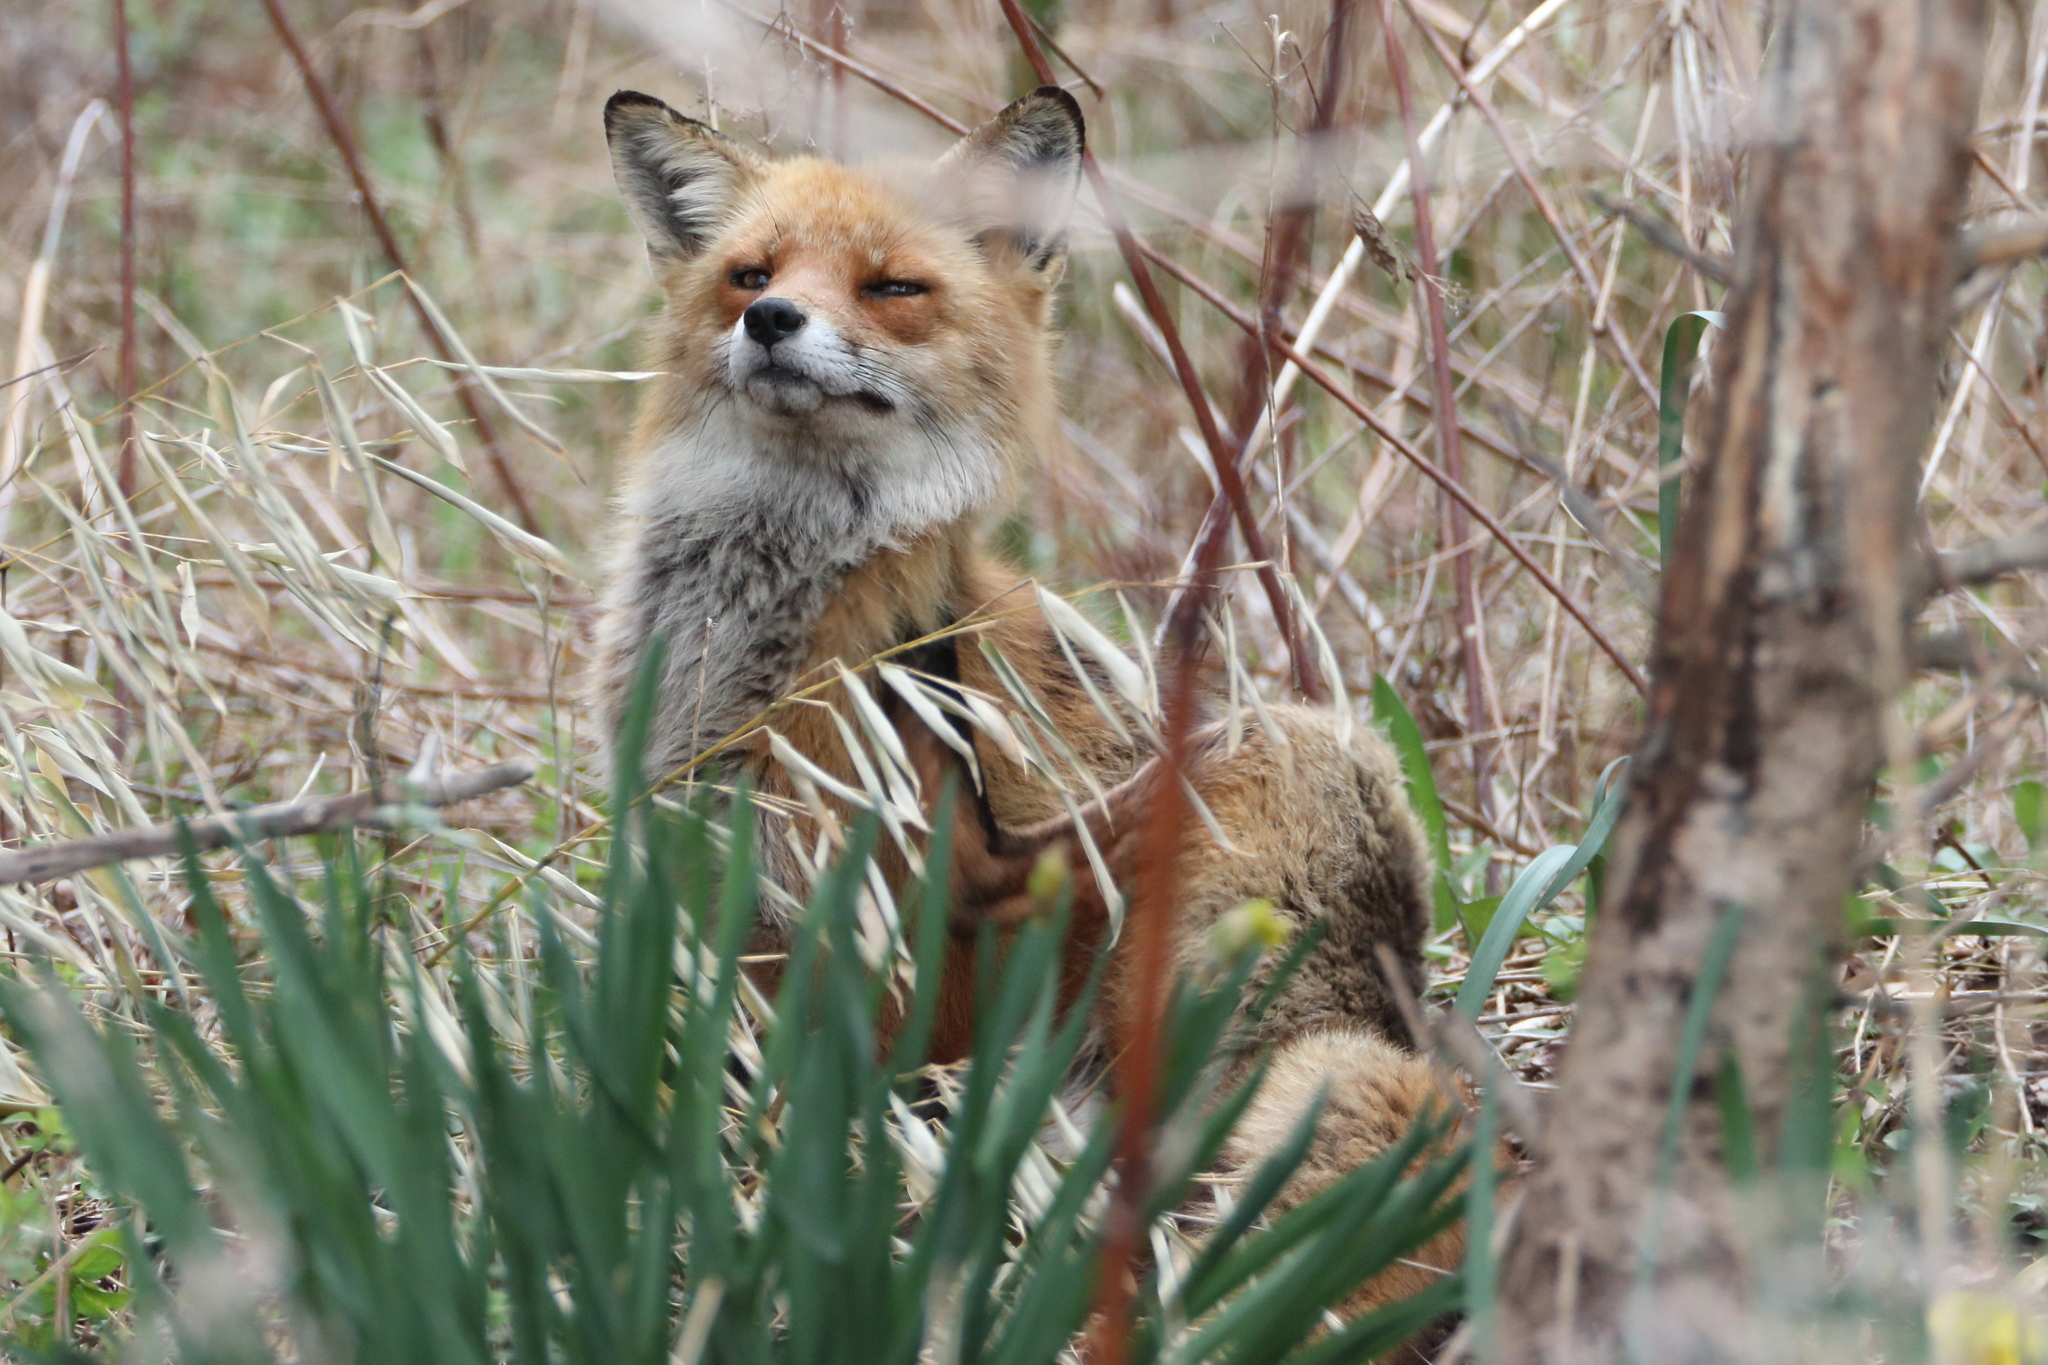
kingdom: Animalia
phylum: Chordata
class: Mammalia
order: Carnivora
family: Canidae
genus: Vulpes
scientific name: Vulpes vulpes
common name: Red fox
